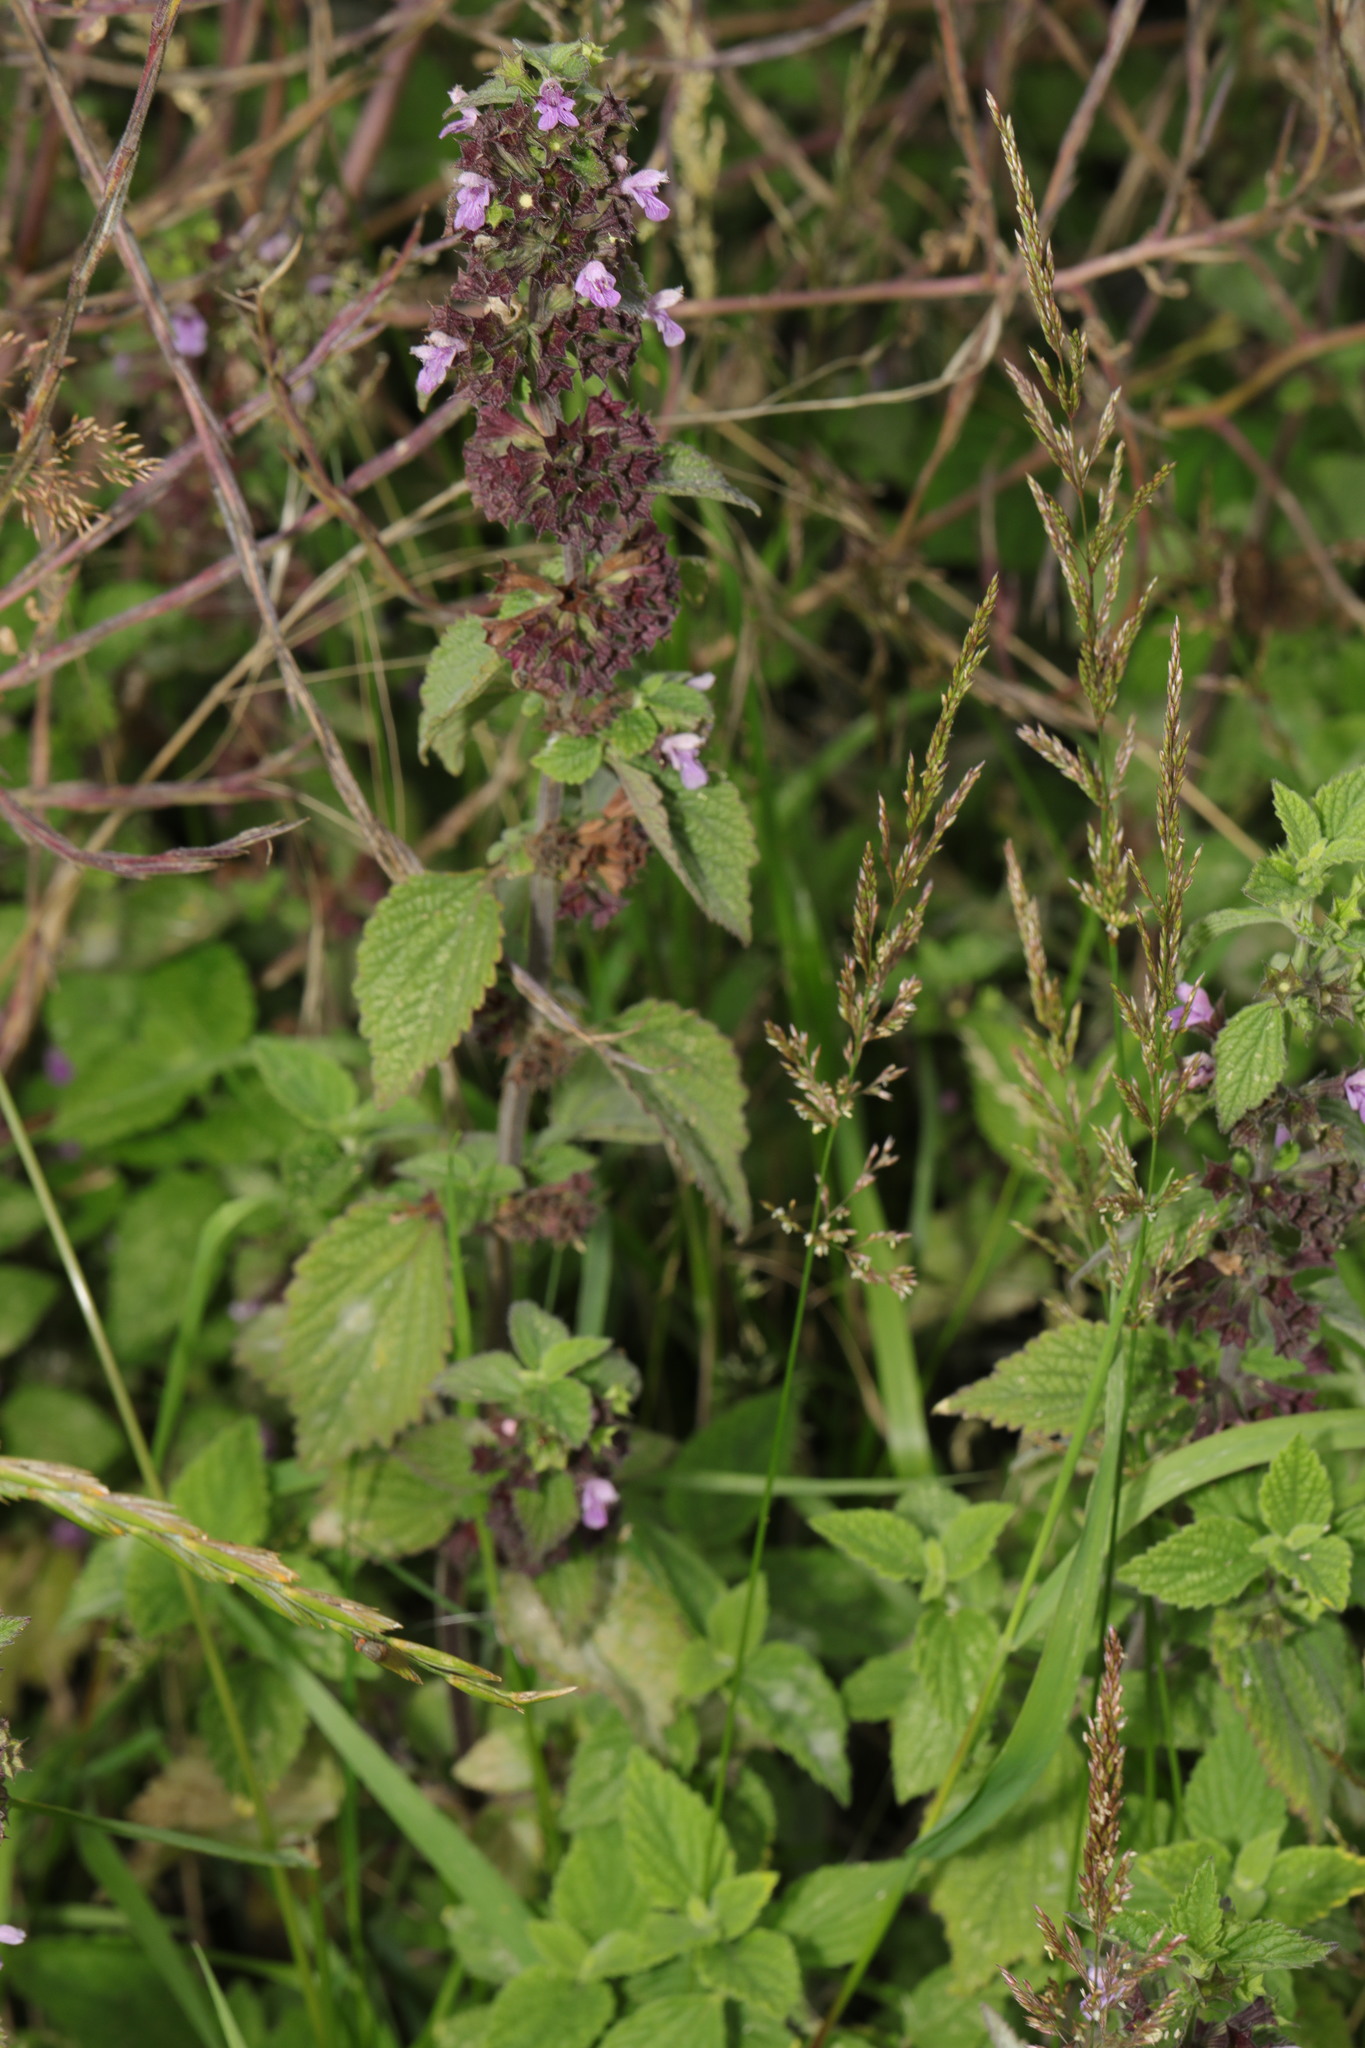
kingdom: Plantae
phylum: Tracheophyta
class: Magnoliopsida
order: Lamiales
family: Lamiaceae
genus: Ballota
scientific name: Ballota nigra
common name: Black horehound
